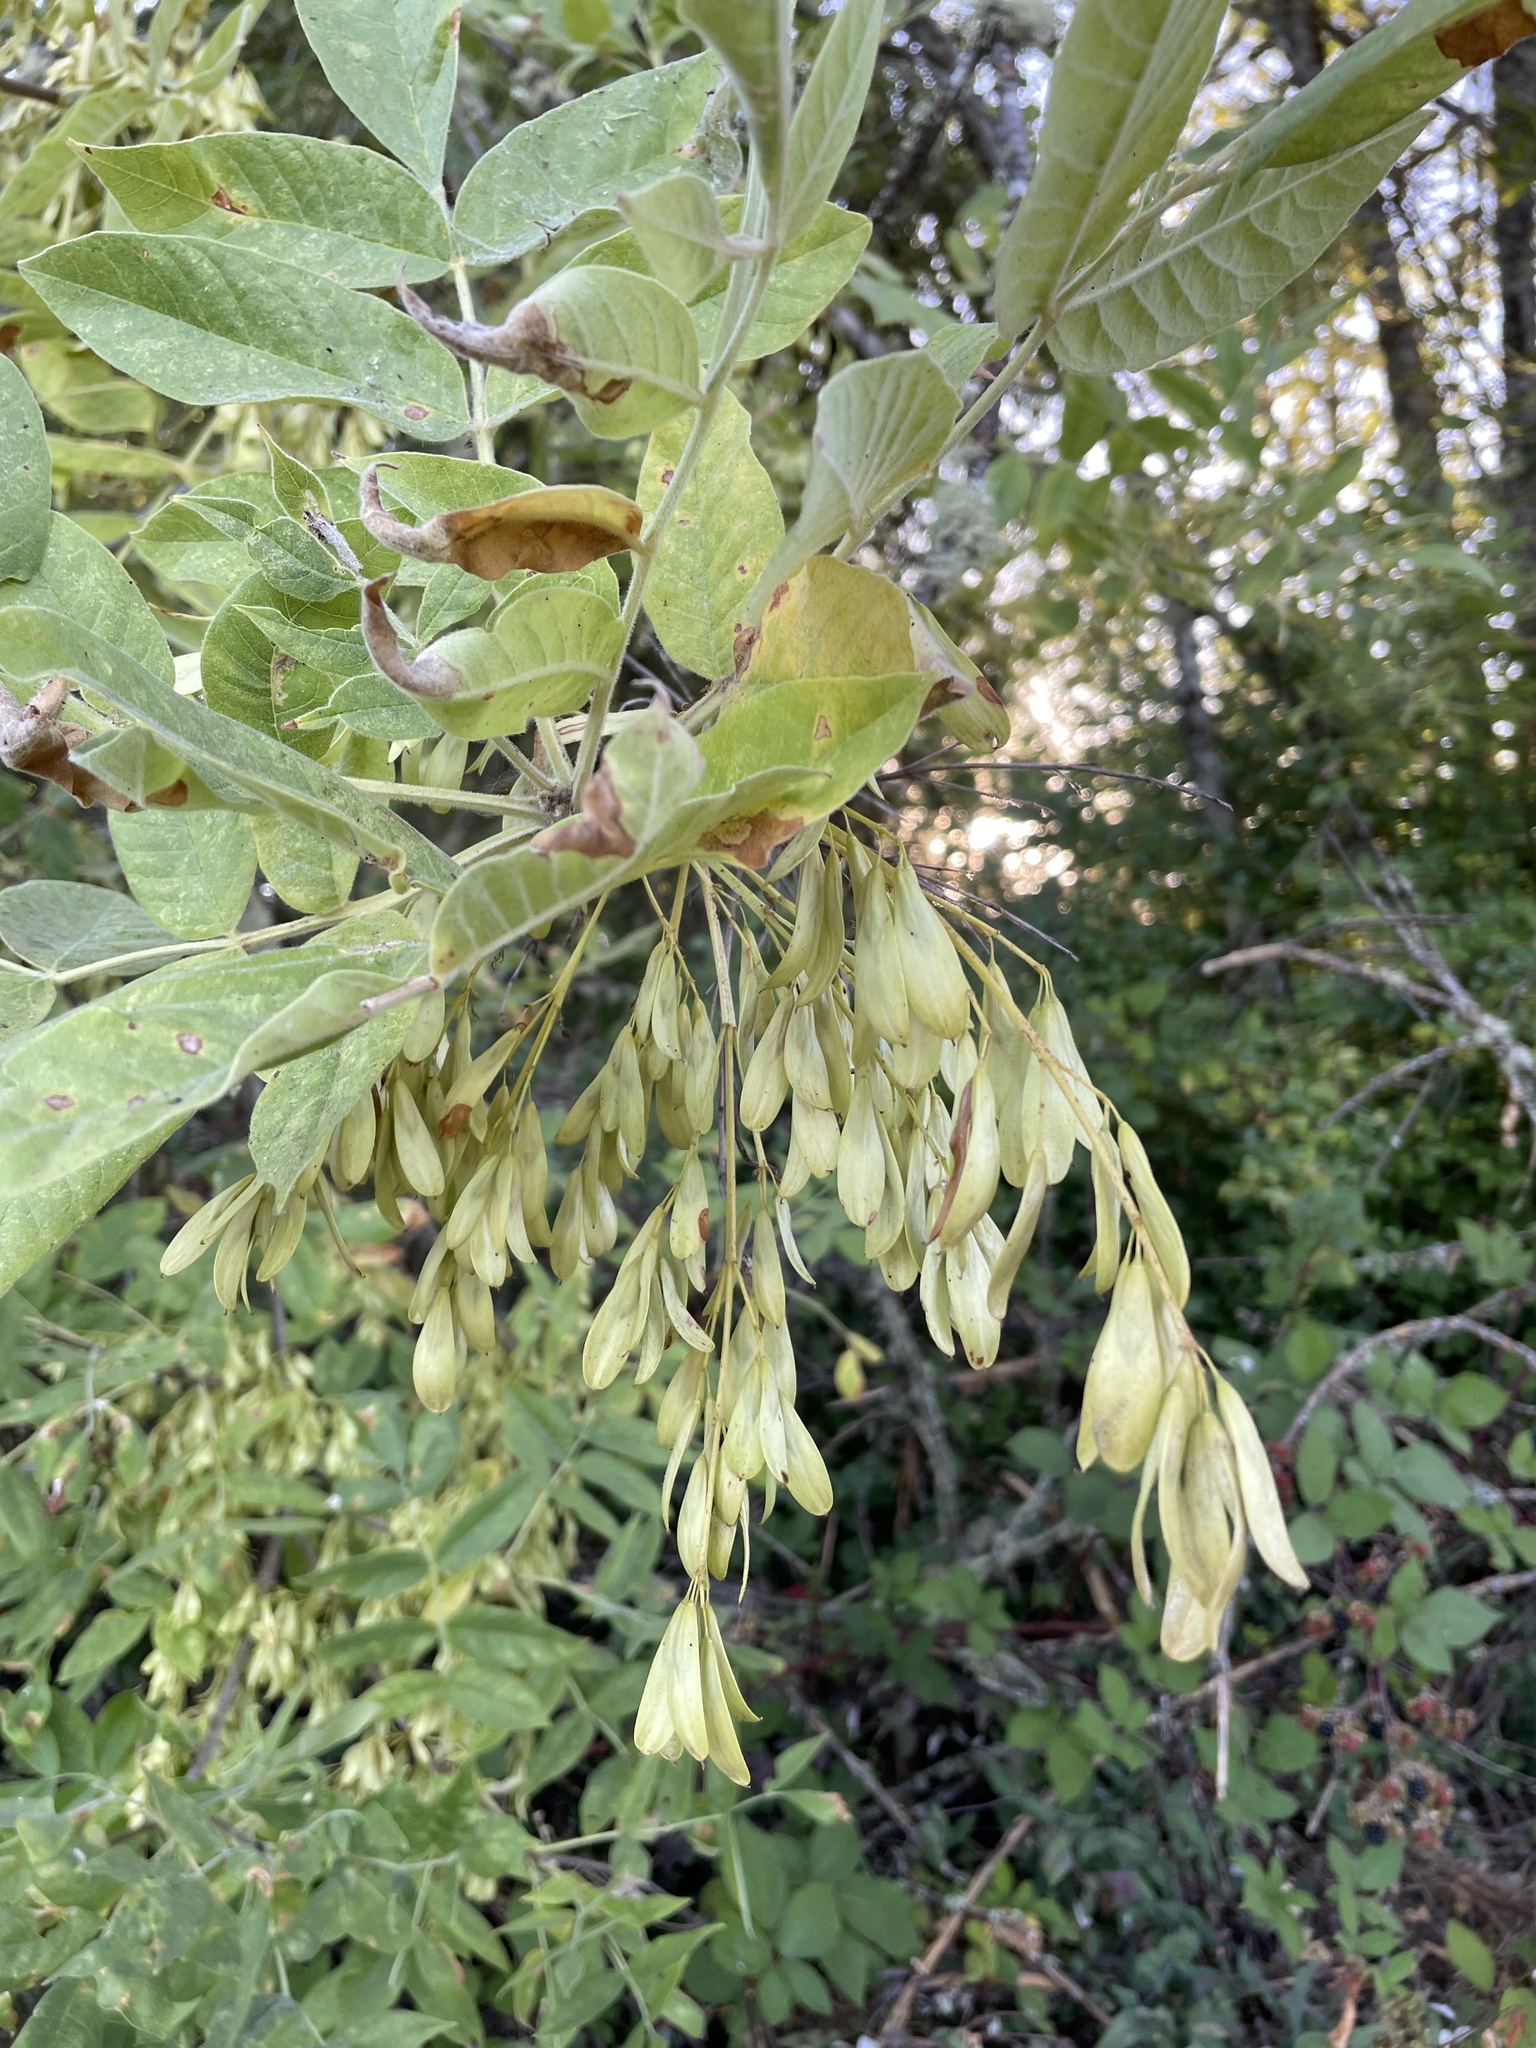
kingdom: Plantae
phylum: Tracheophyta
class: Magnoliopsida
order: Lamiales
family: Oleaceae
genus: Fraxinus
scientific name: Fraxinus latifolia
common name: Oregon ash
